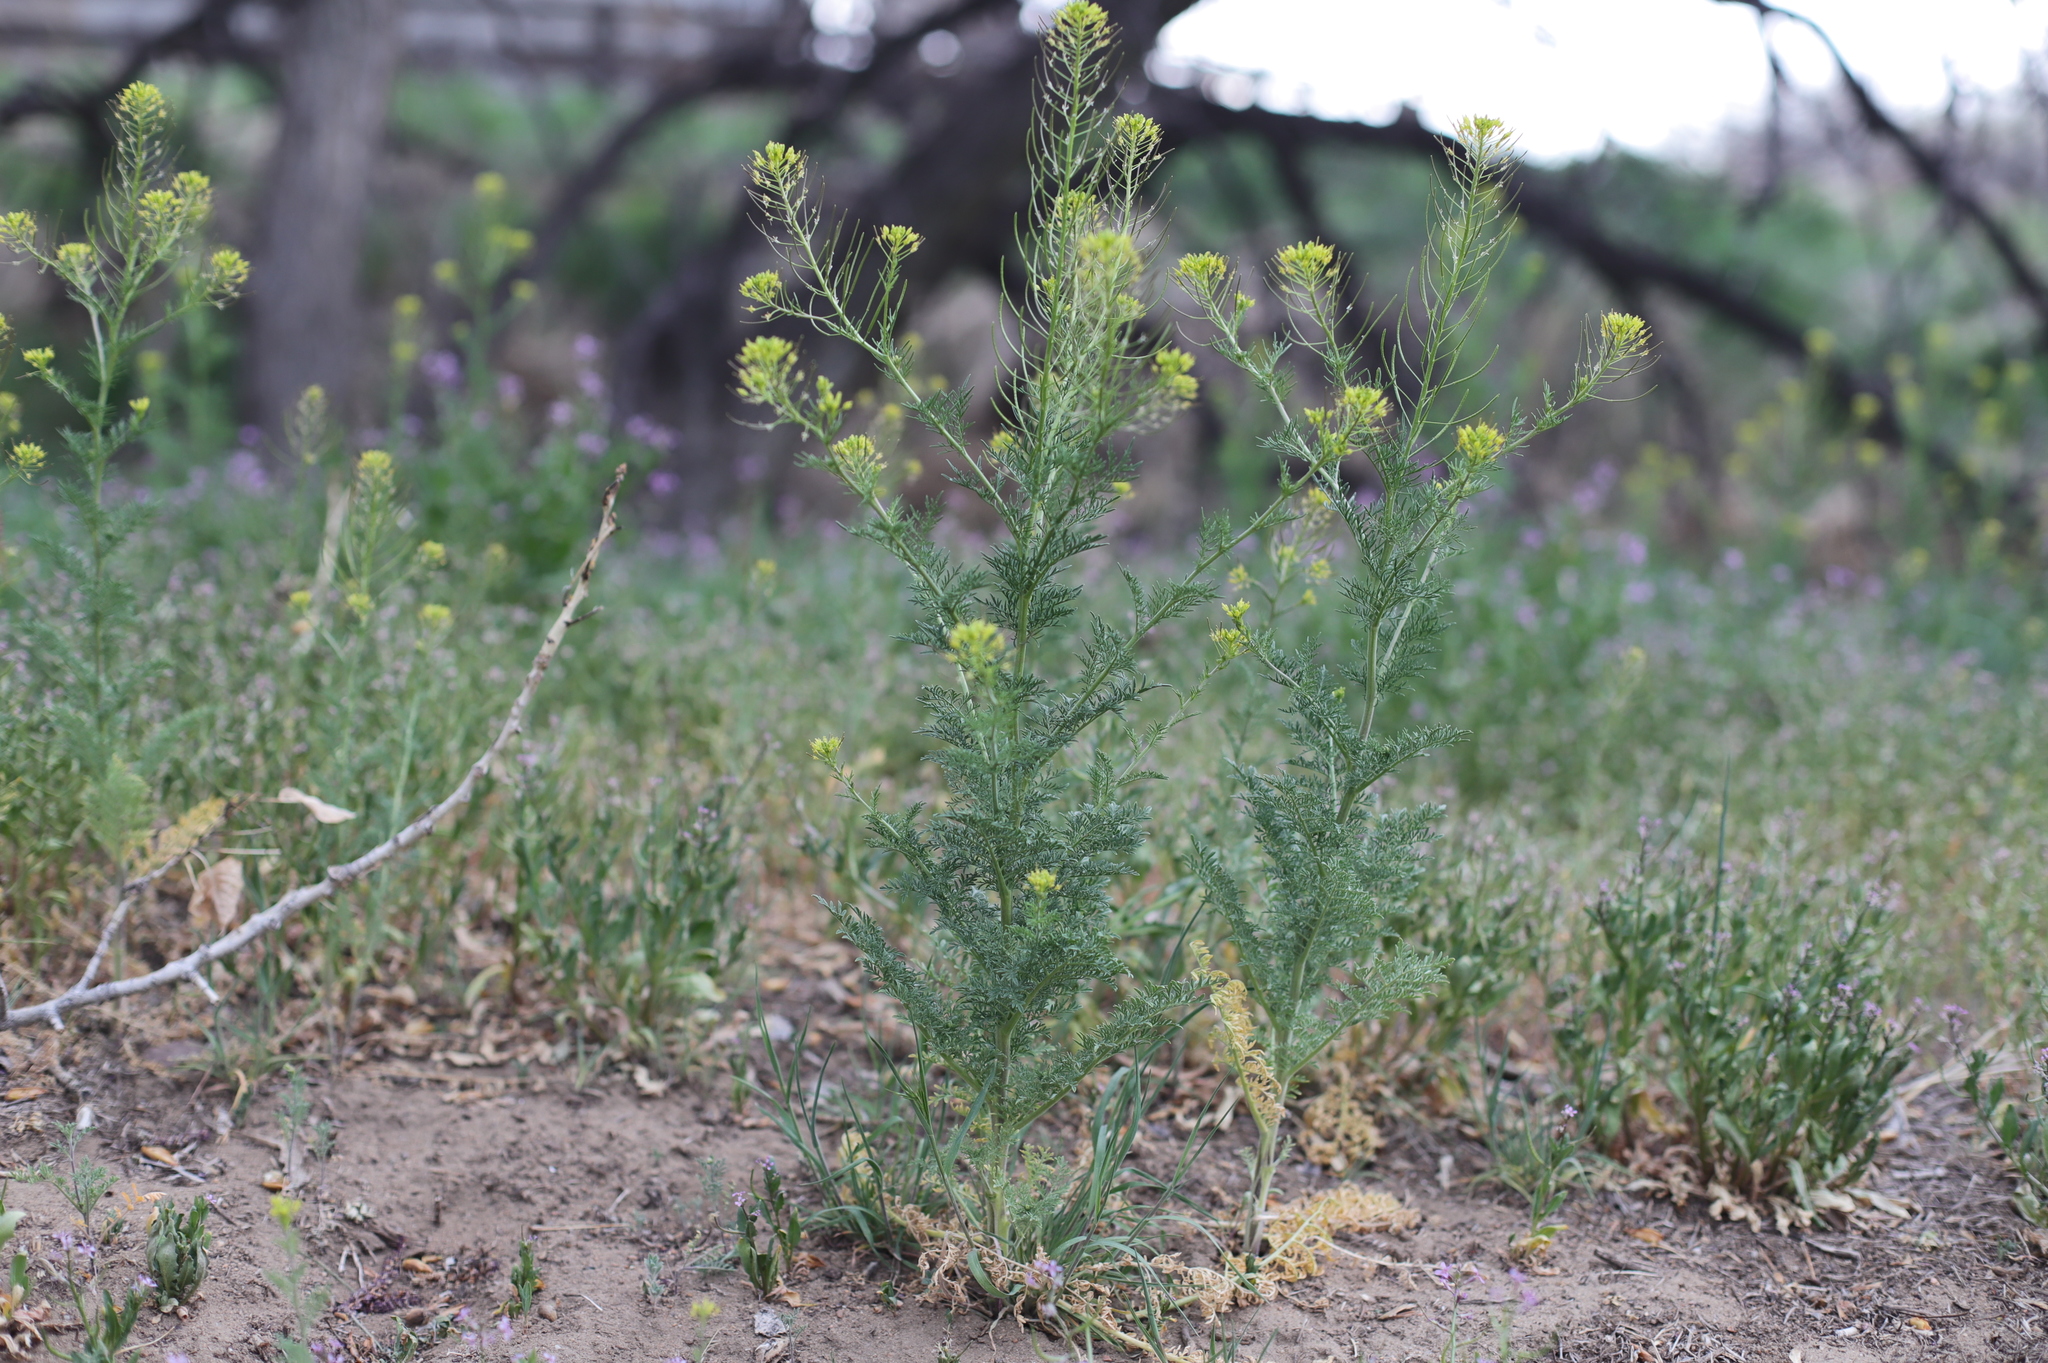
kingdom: Plantae
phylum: Tracheophyta
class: Magnoliopsida
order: Brassicales
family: Brassicaceae
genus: Descurainia
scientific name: Descurainia sophia
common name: Flixweed
